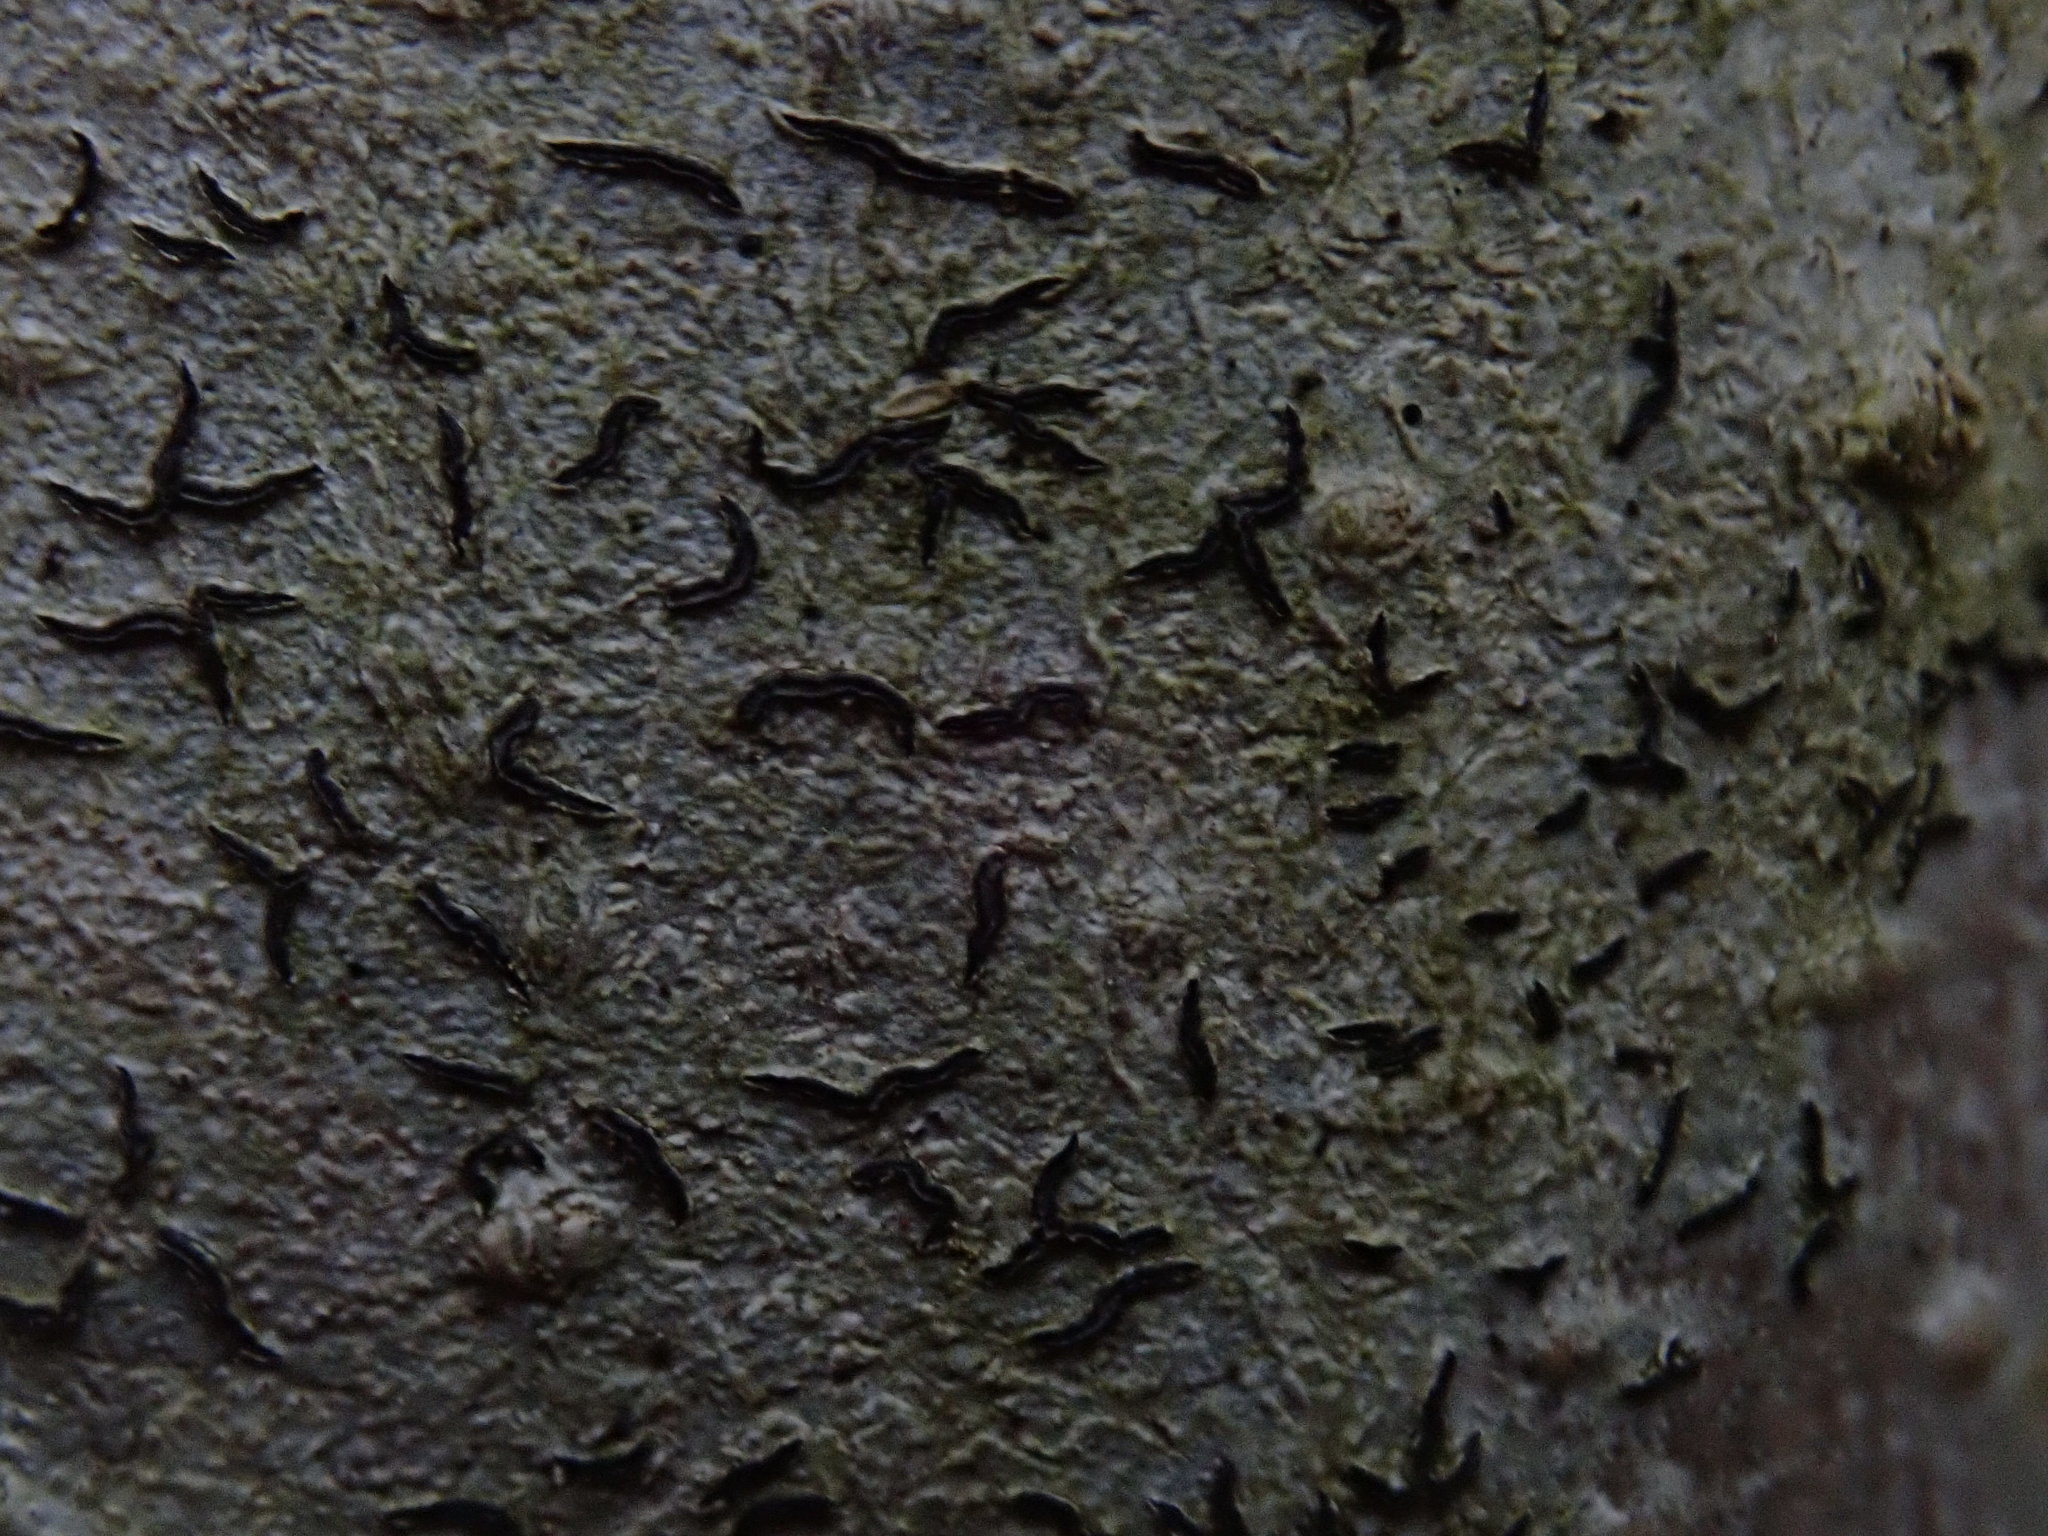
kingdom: Fungi
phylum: Ascomycota
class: Lecanoromycetes
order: Ostropales
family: Graphidaceae
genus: Graphis
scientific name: Graphis scripta
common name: Script lichen
